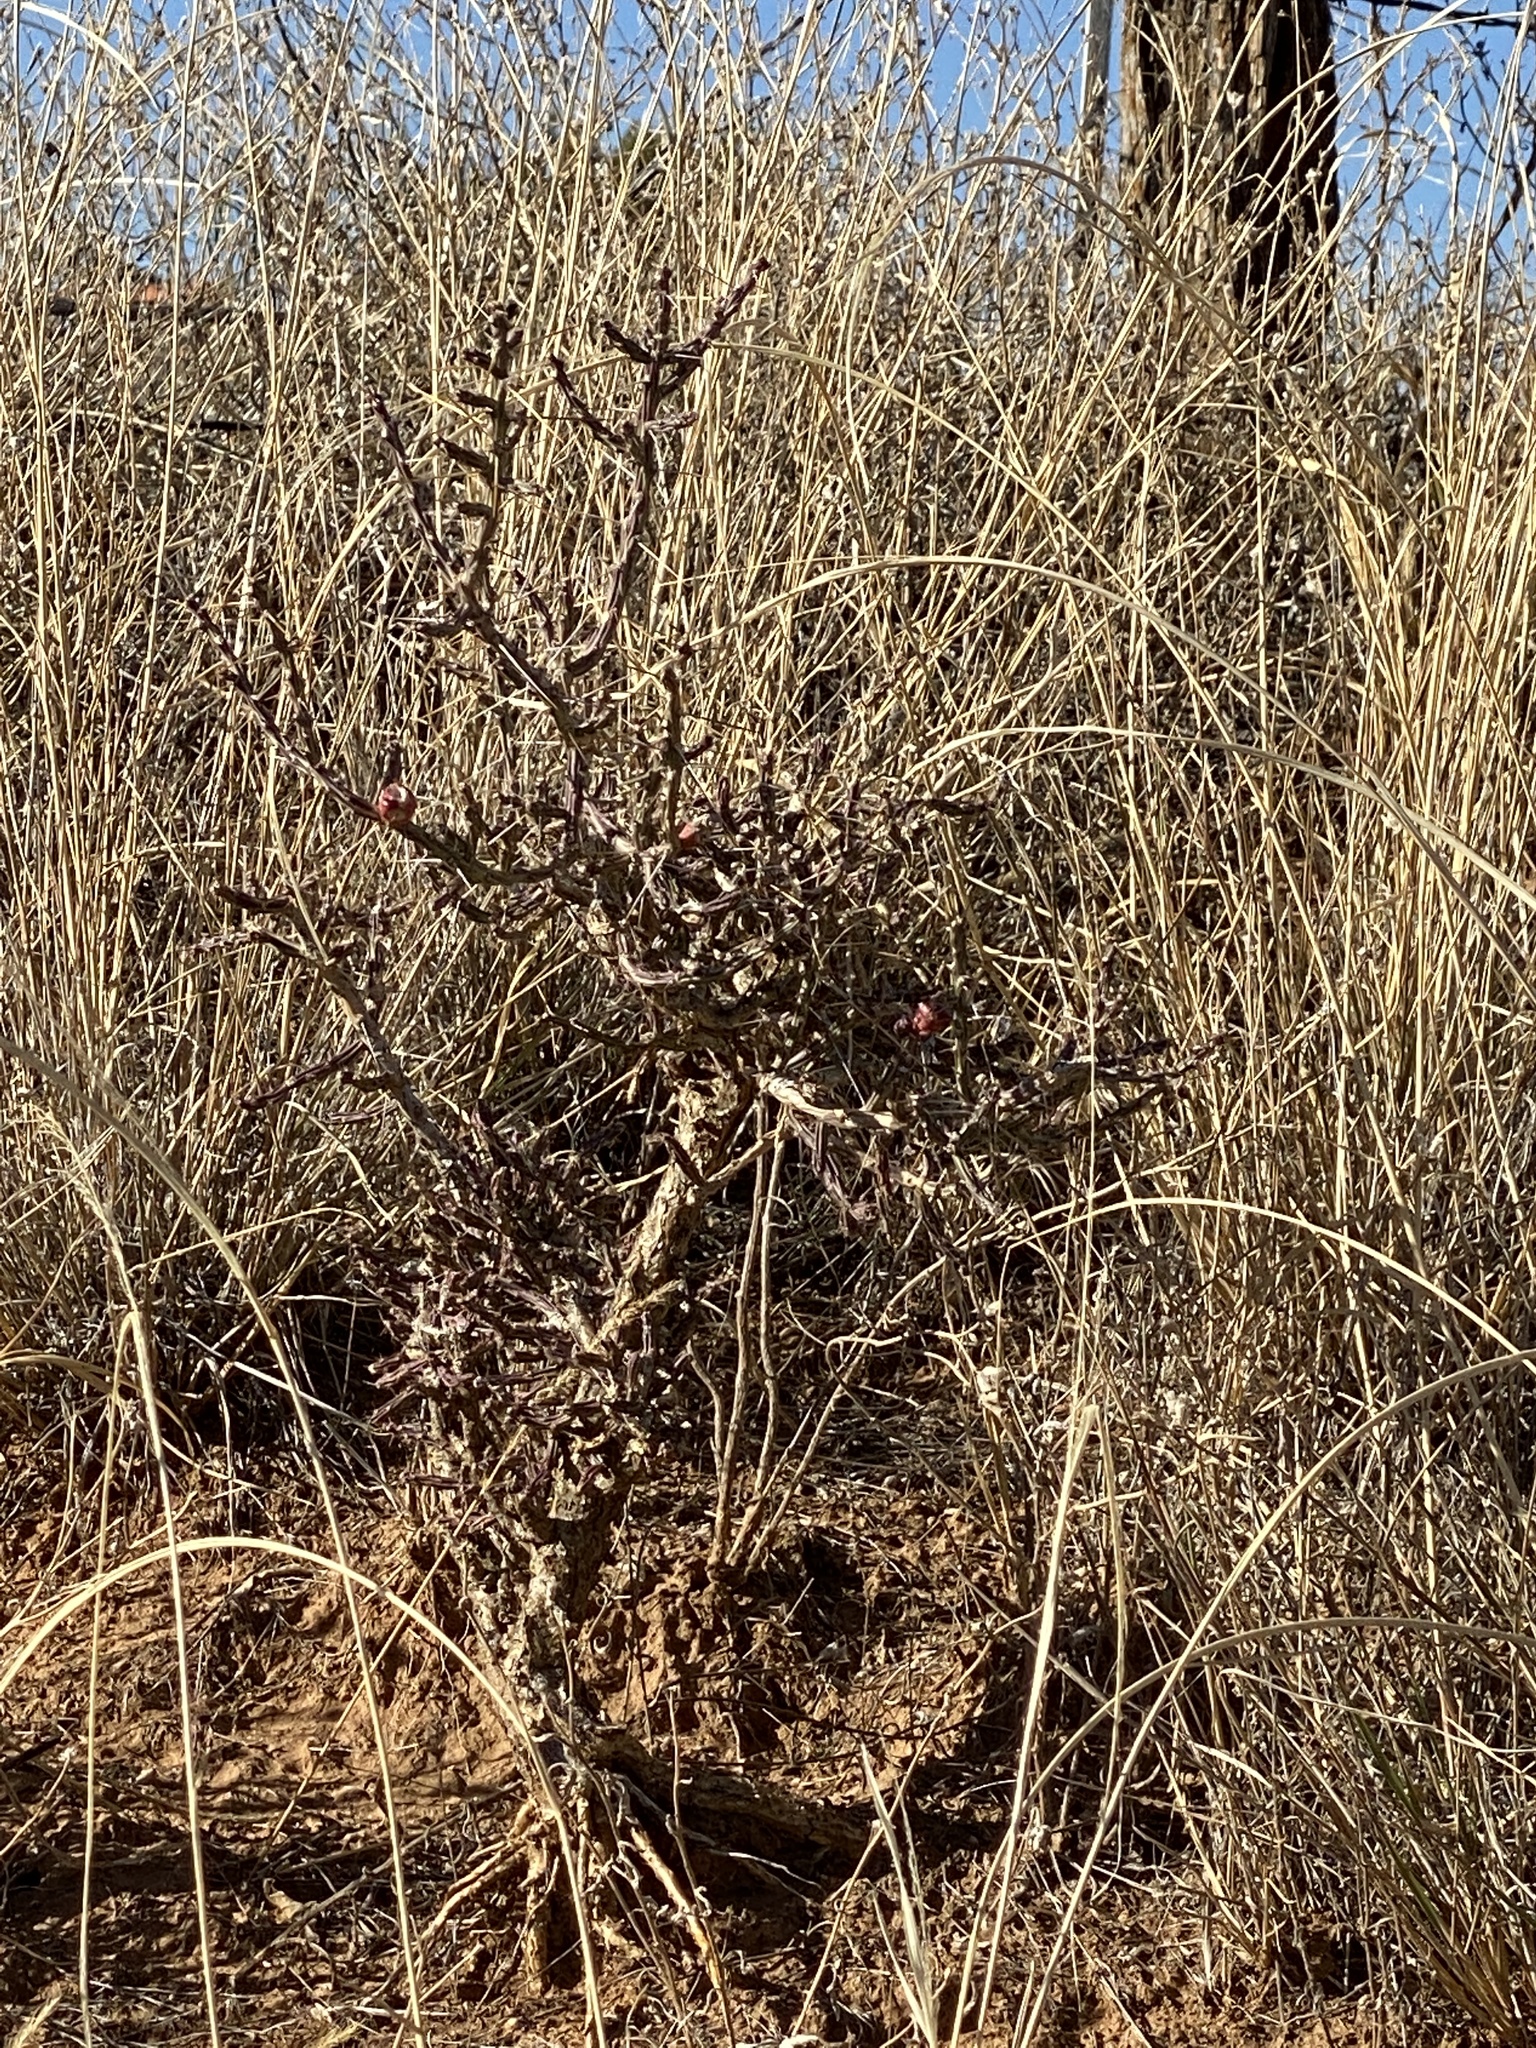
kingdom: Plantae
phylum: Tracheophyta
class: Magnoliopsida
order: Caryophyllales
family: Cactaceae
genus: Cylindropuntia
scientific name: Cylindropuntia leptocaulis
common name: Christmas cactus
